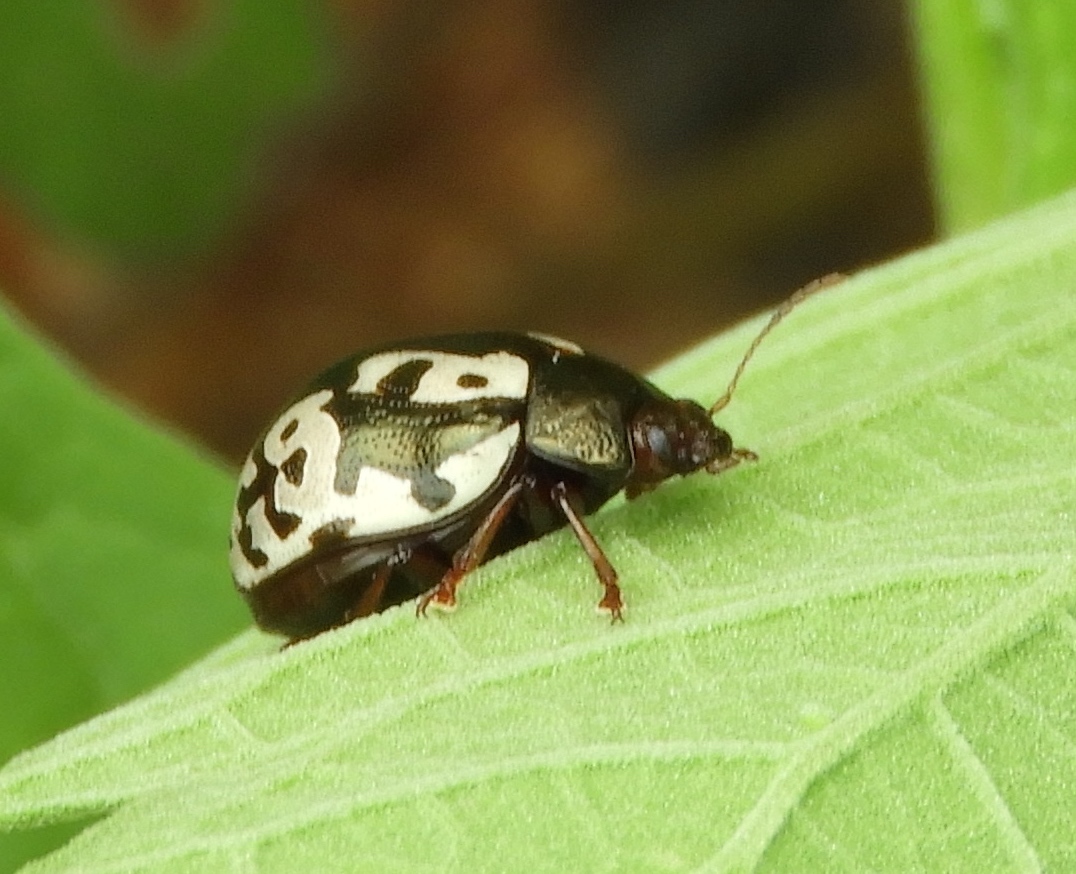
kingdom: Animalia
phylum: Arthropoda
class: Insecta
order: Coleoptera
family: Chrysomelidae
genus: Calligrapha
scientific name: Calligrapha intermedia
